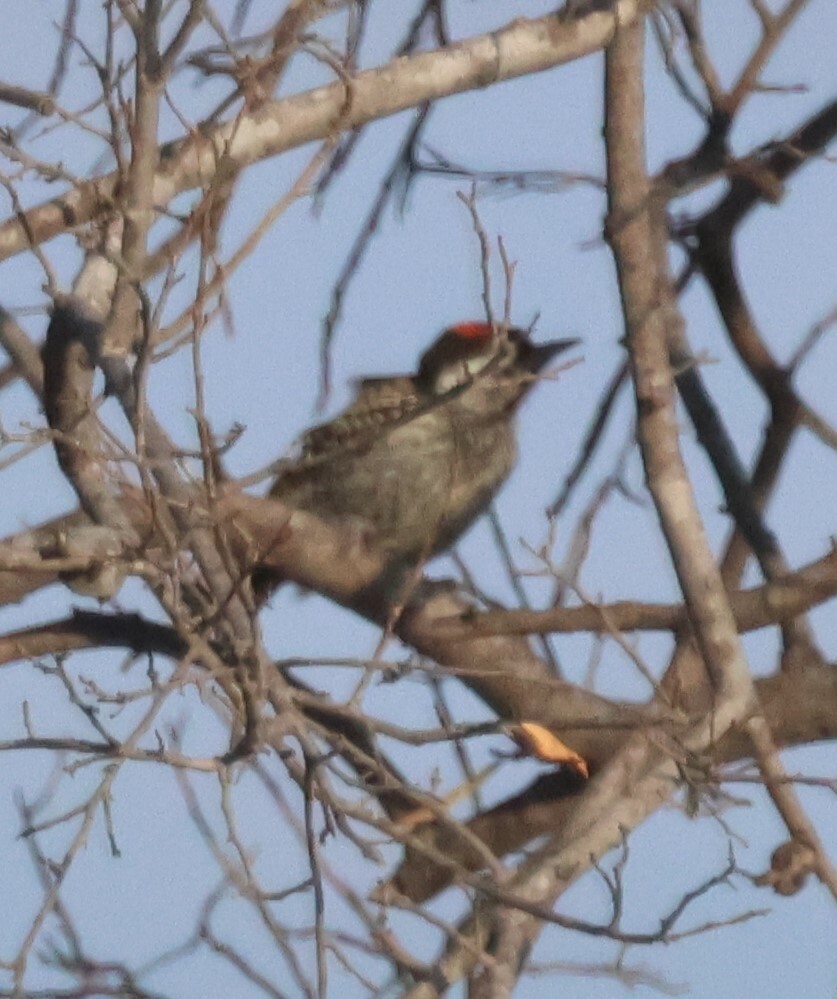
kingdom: Animalia
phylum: Chordata
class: Aves
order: Piciformes
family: Picidae
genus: Dendropicos
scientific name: Dendropicos fuscescens
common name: Cardinal woodpecker
